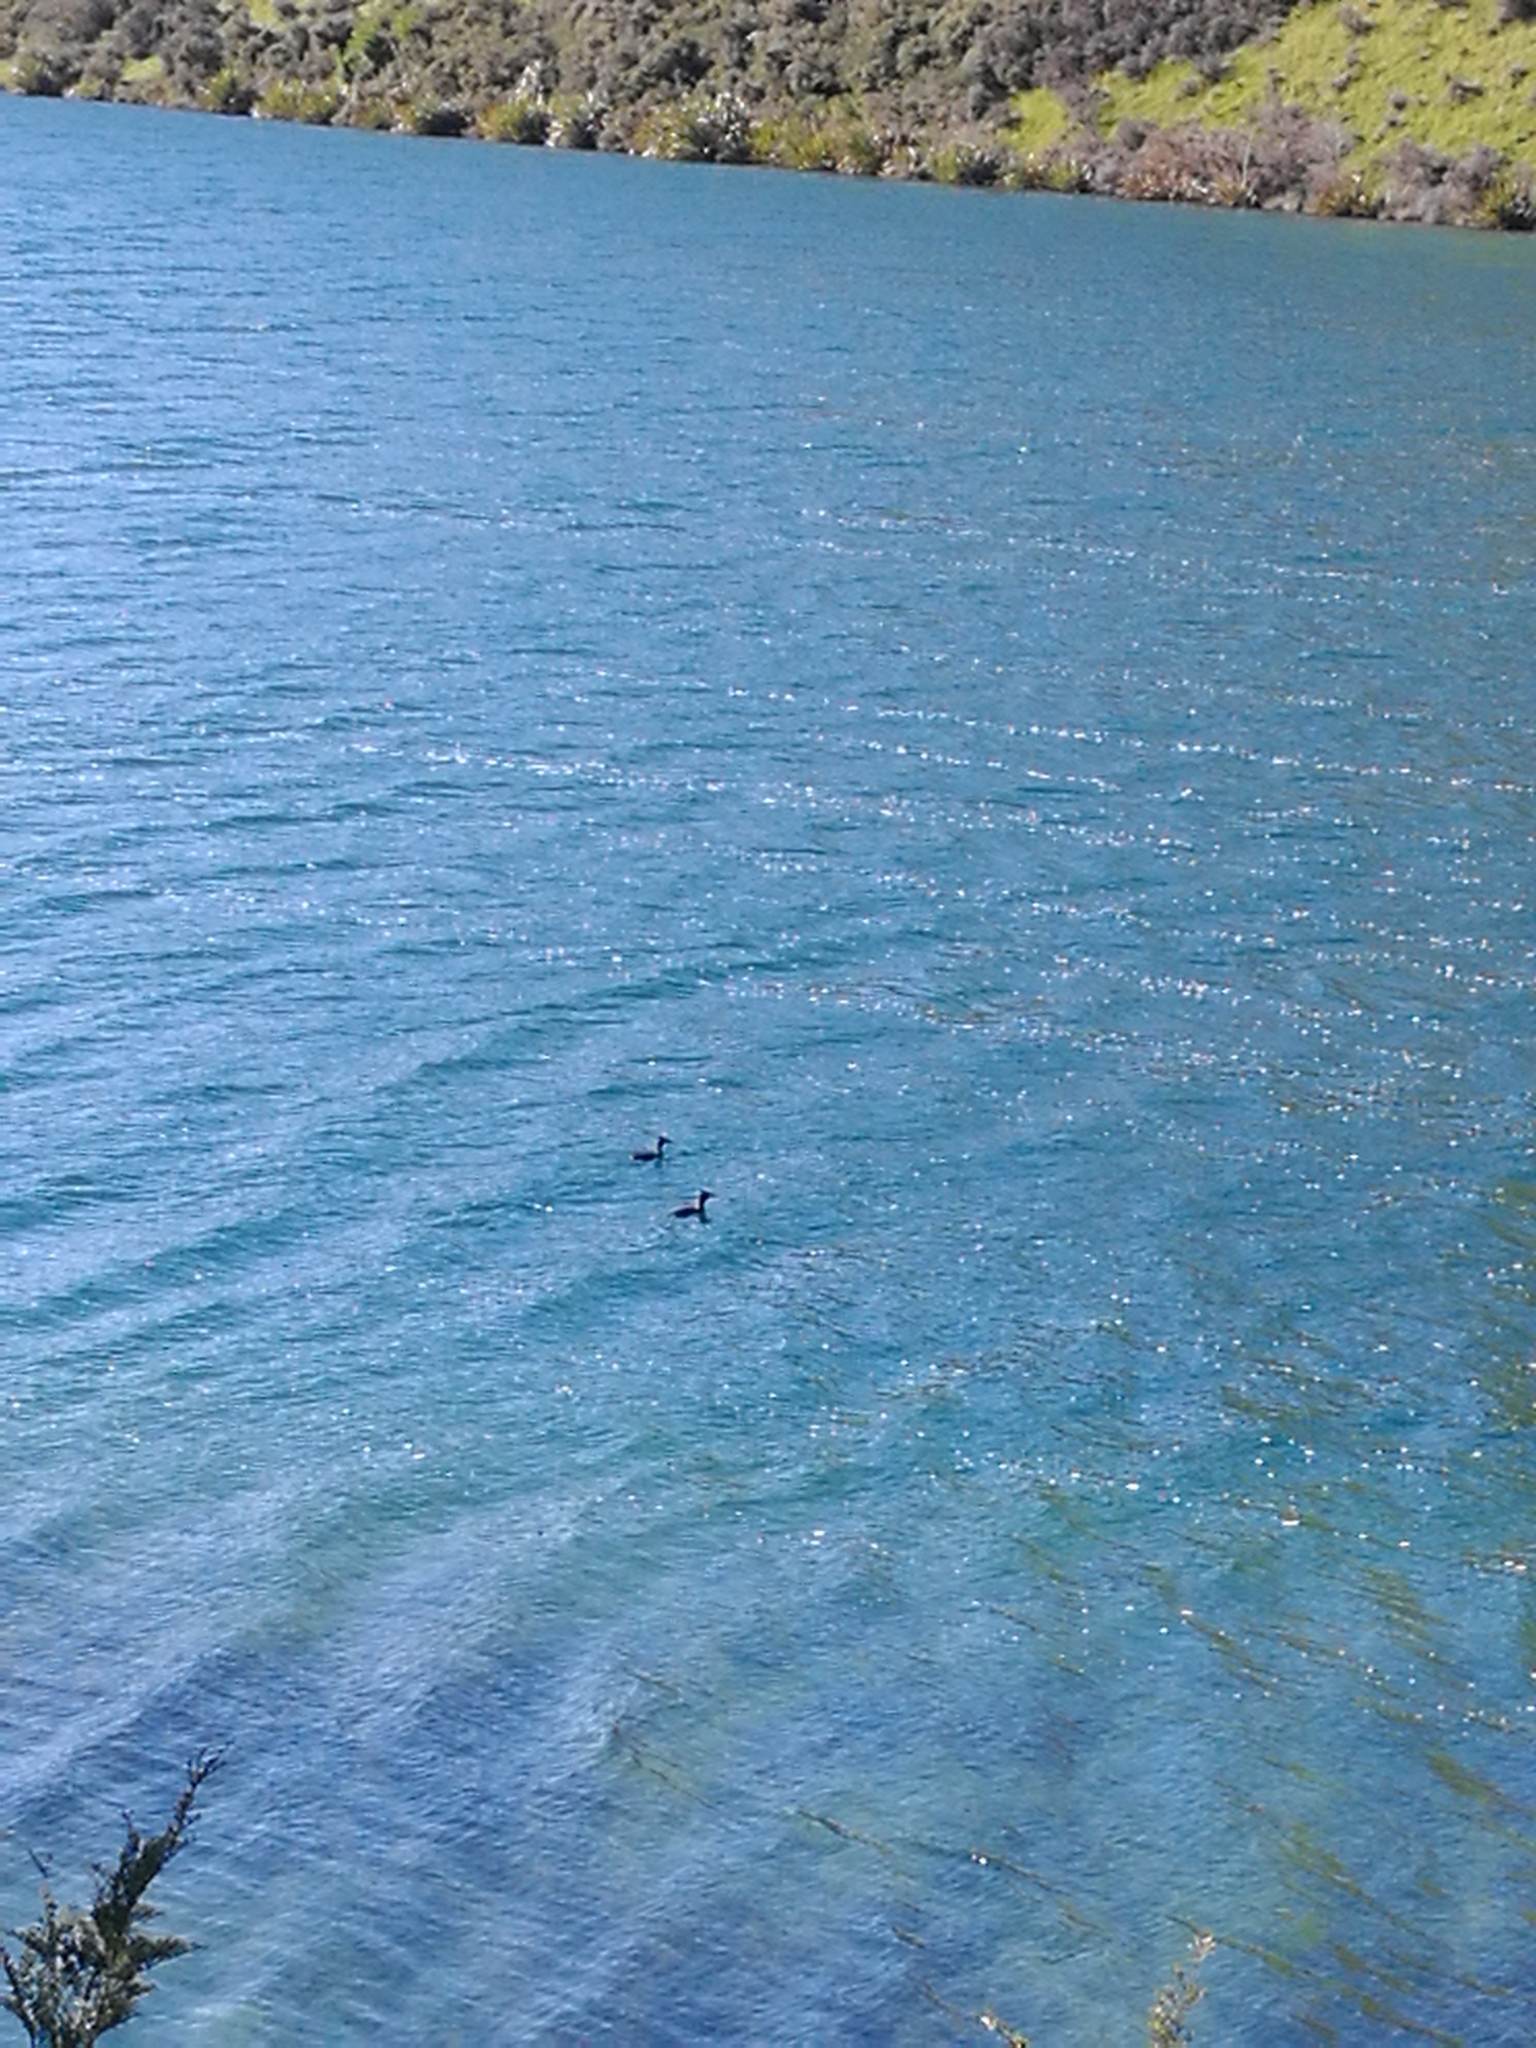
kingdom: Animalia
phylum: Chordata
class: Aves
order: Podicipediformes
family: Podicipedidae
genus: Podiceps
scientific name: Podiceps cristatus
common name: Great crested grebe
